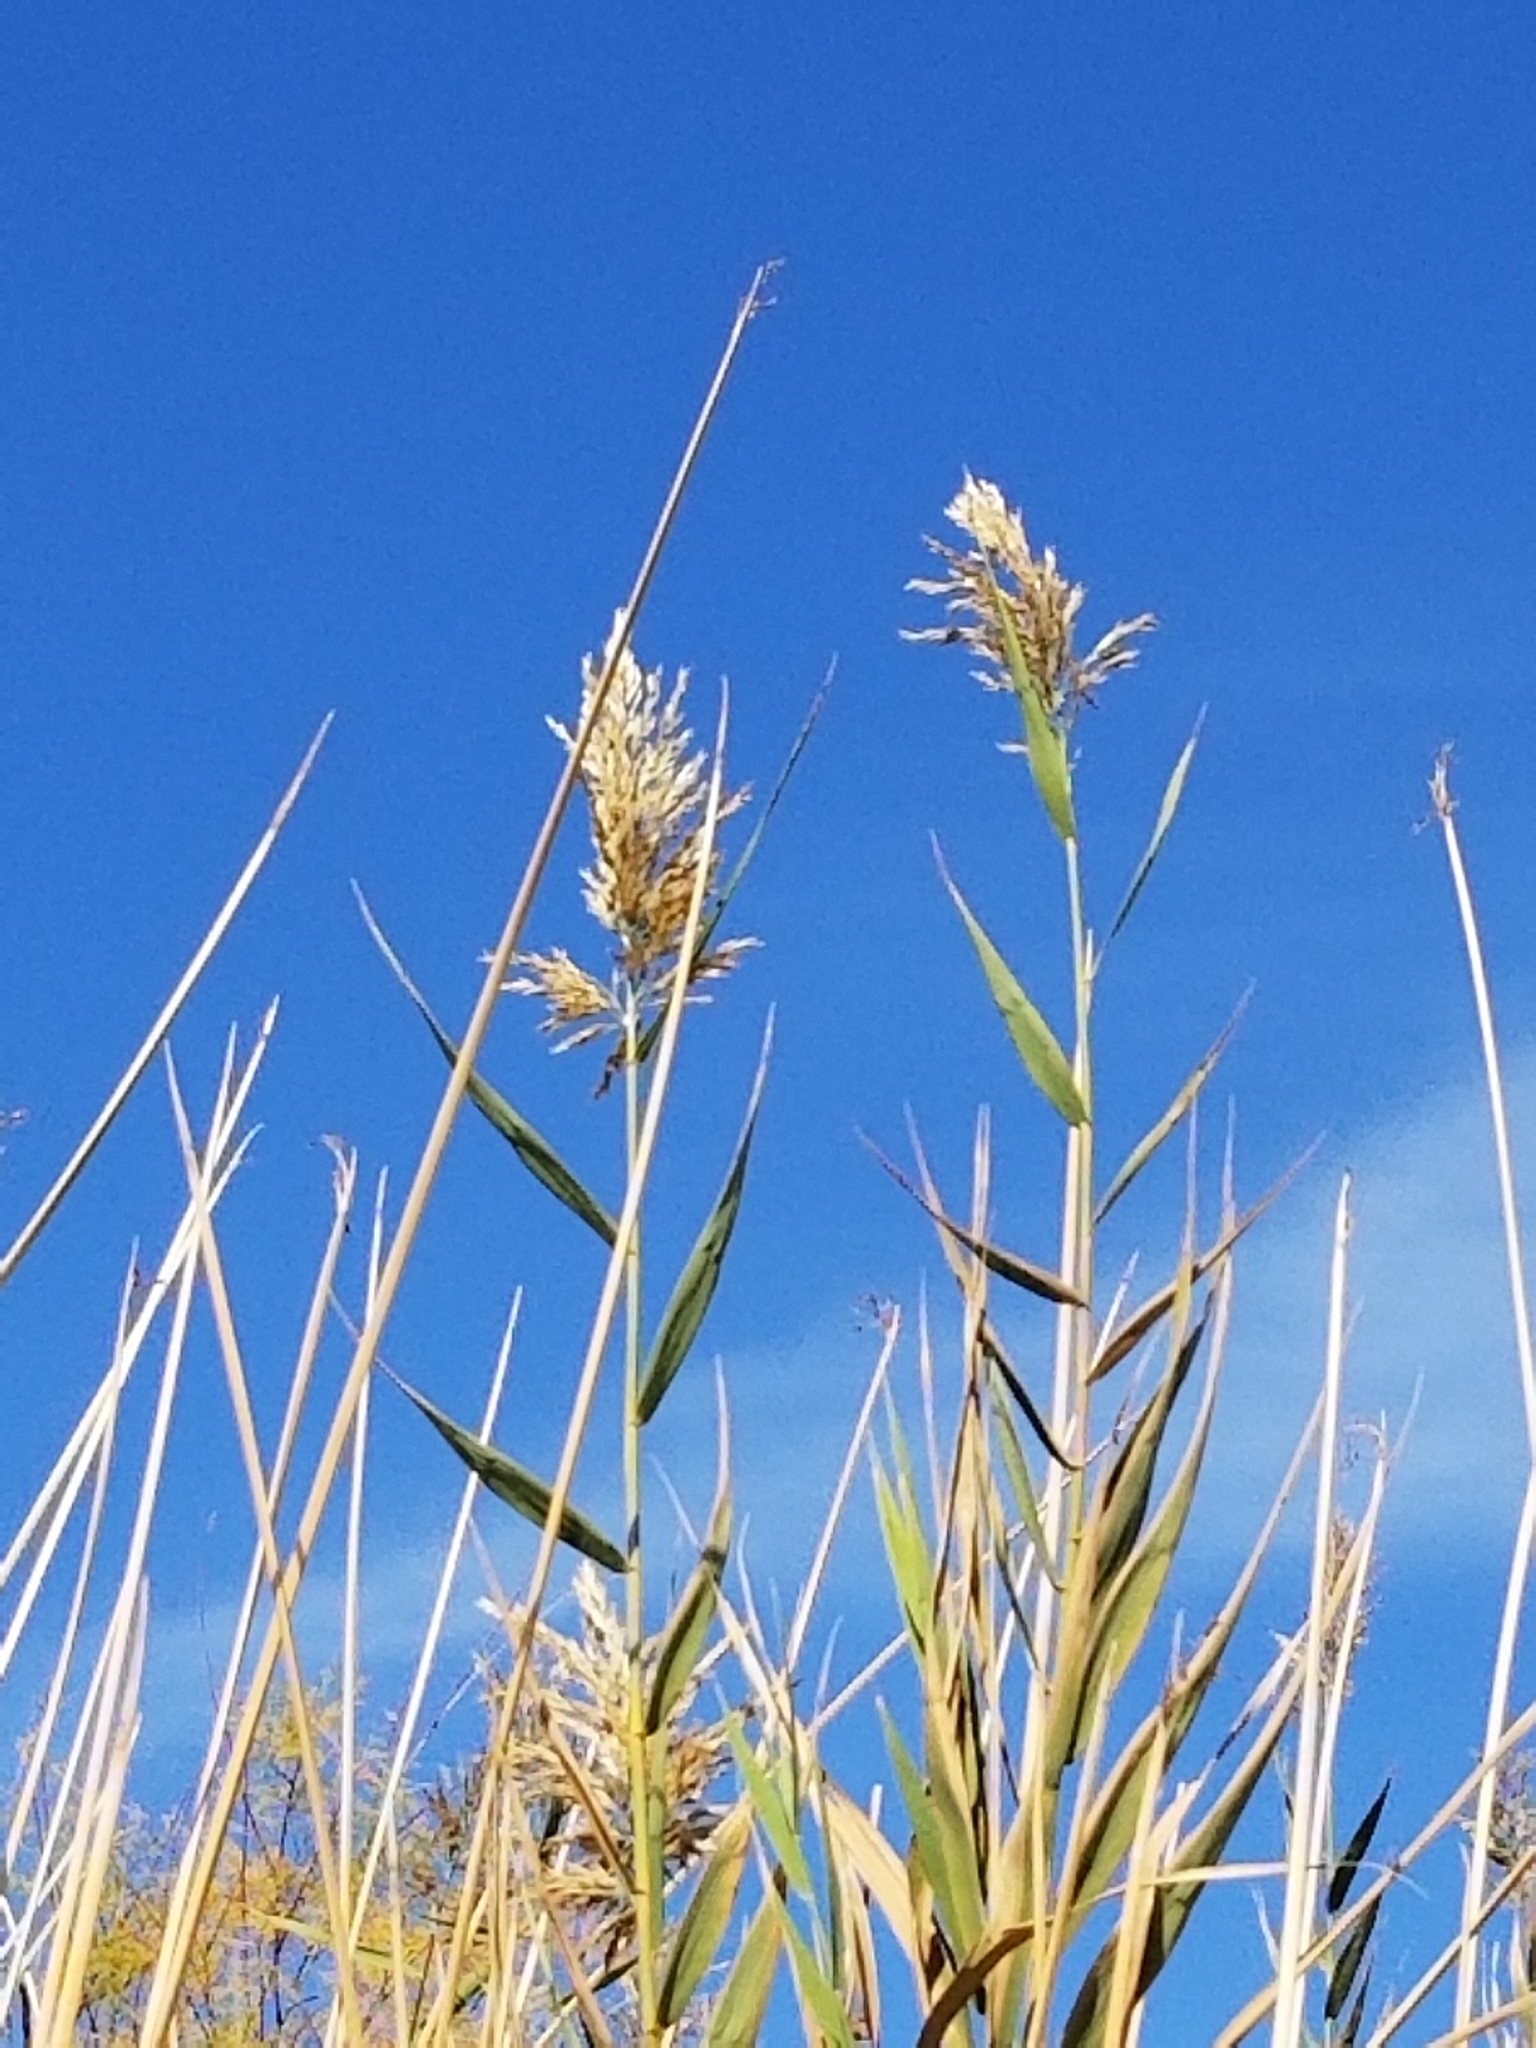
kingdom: Plantae
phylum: Tracheophyta
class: Liliopsida
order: Poales
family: Poaceae
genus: Arundo
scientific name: Arundo donax
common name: Giant reed
